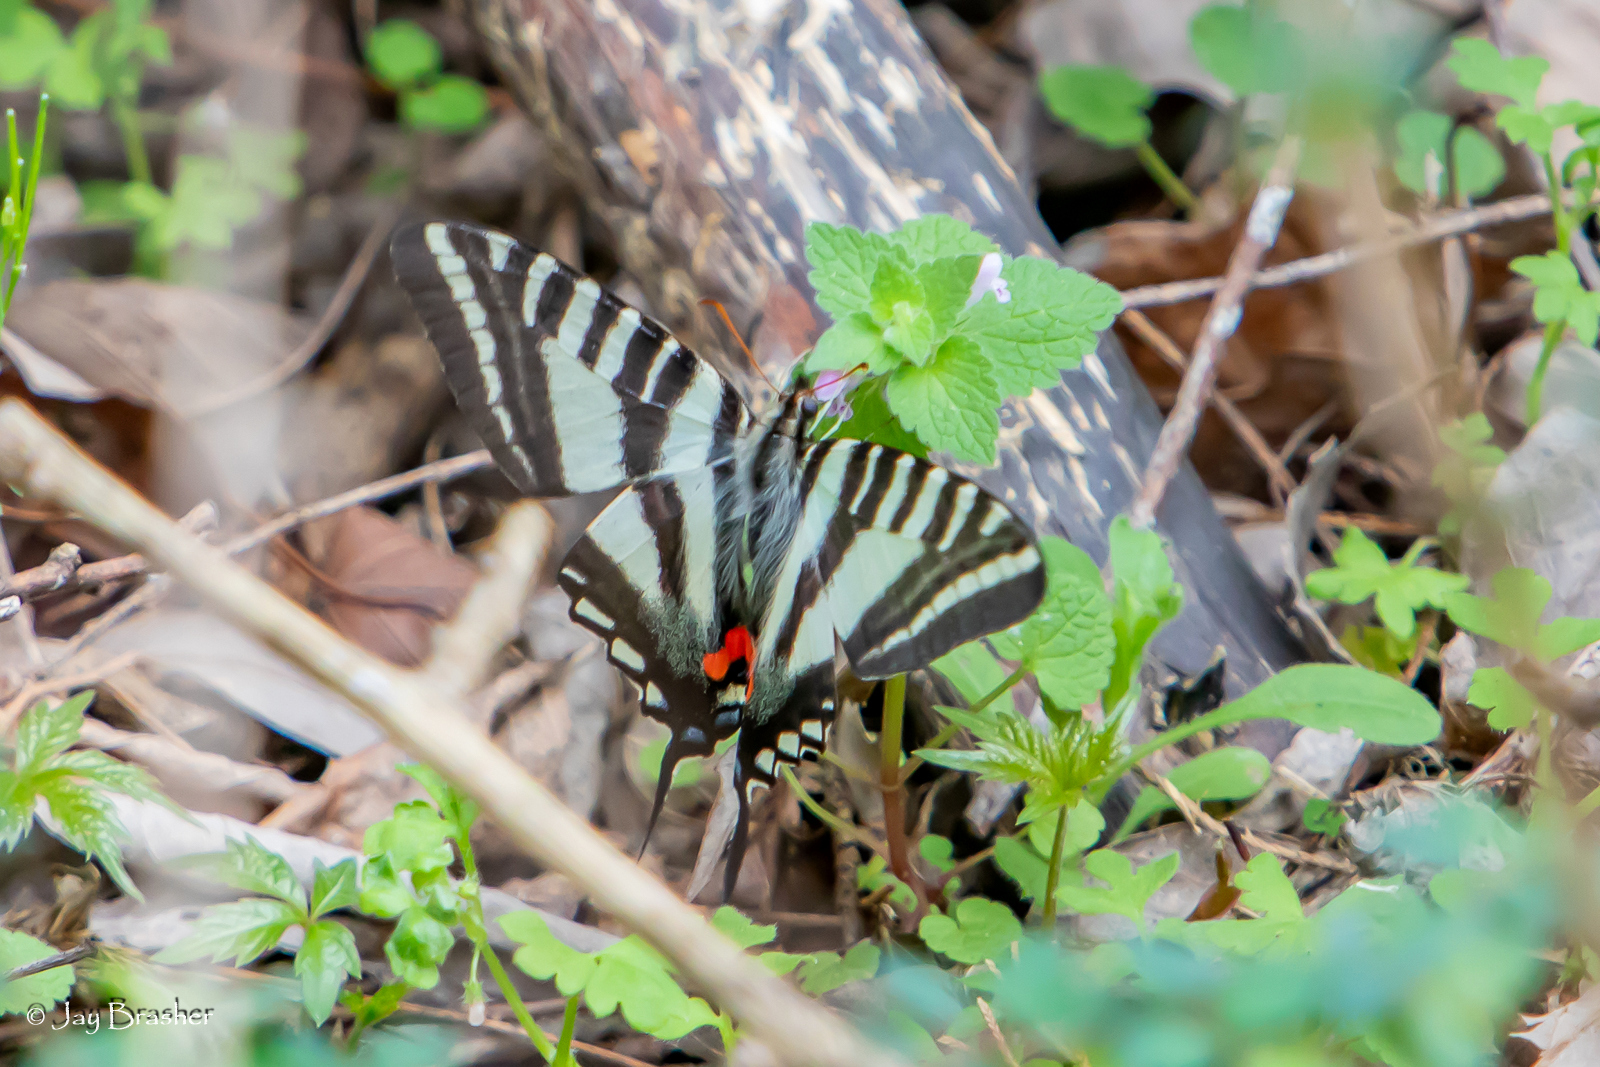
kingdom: Animalia
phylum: Arthropoda
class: Insecta
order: Lepidoptera
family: Papilionidae
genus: Protographium
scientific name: Protographium marcellus
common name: Zebra swallowtail
